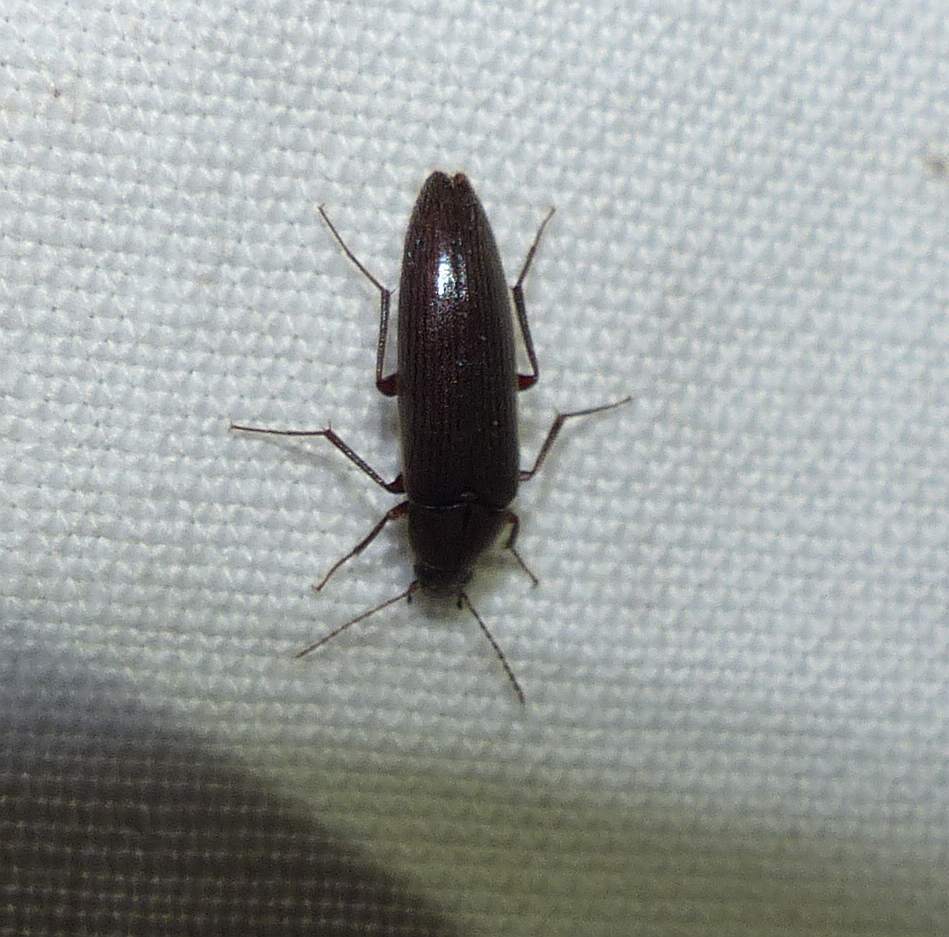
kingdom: Animalia
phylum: Arthropoda
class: Insecta
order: Coleoptera
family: Synchroidae
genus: Synchroa
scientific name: Synchroa punctata
